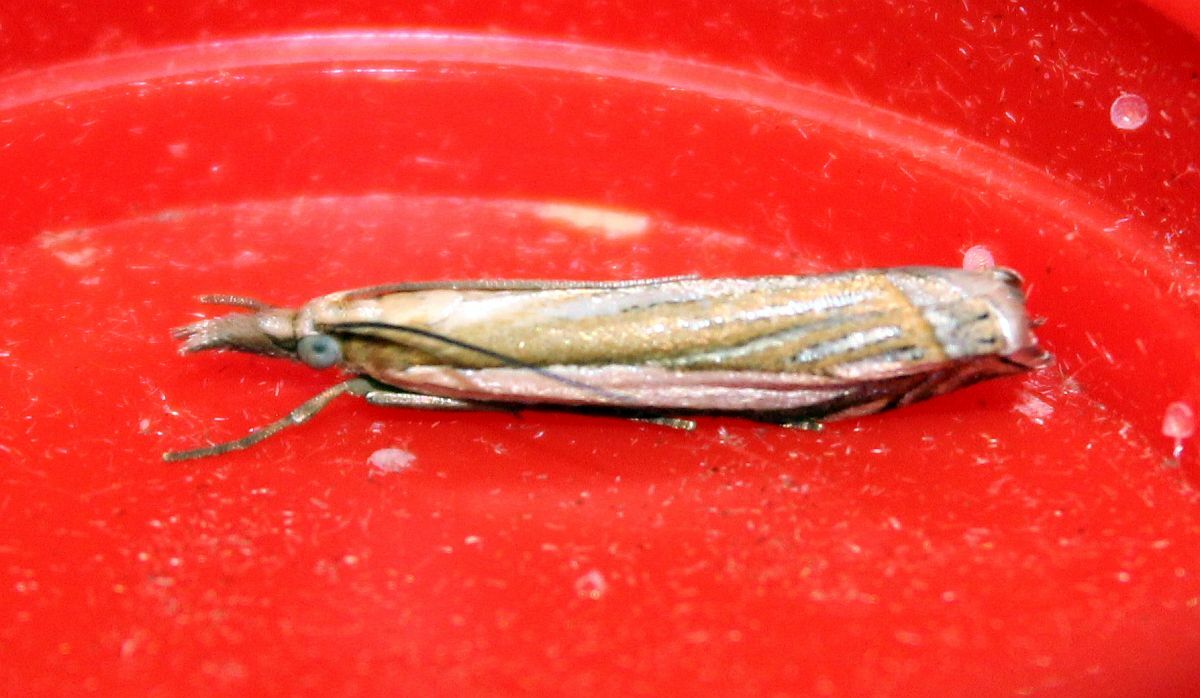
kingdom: Animalia
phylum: Arthropoda
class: Insecta
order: Lepidoptera
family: Crambidae
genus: Crambus
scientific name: Crambus pascuella
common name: Inlaid grass-veneer
